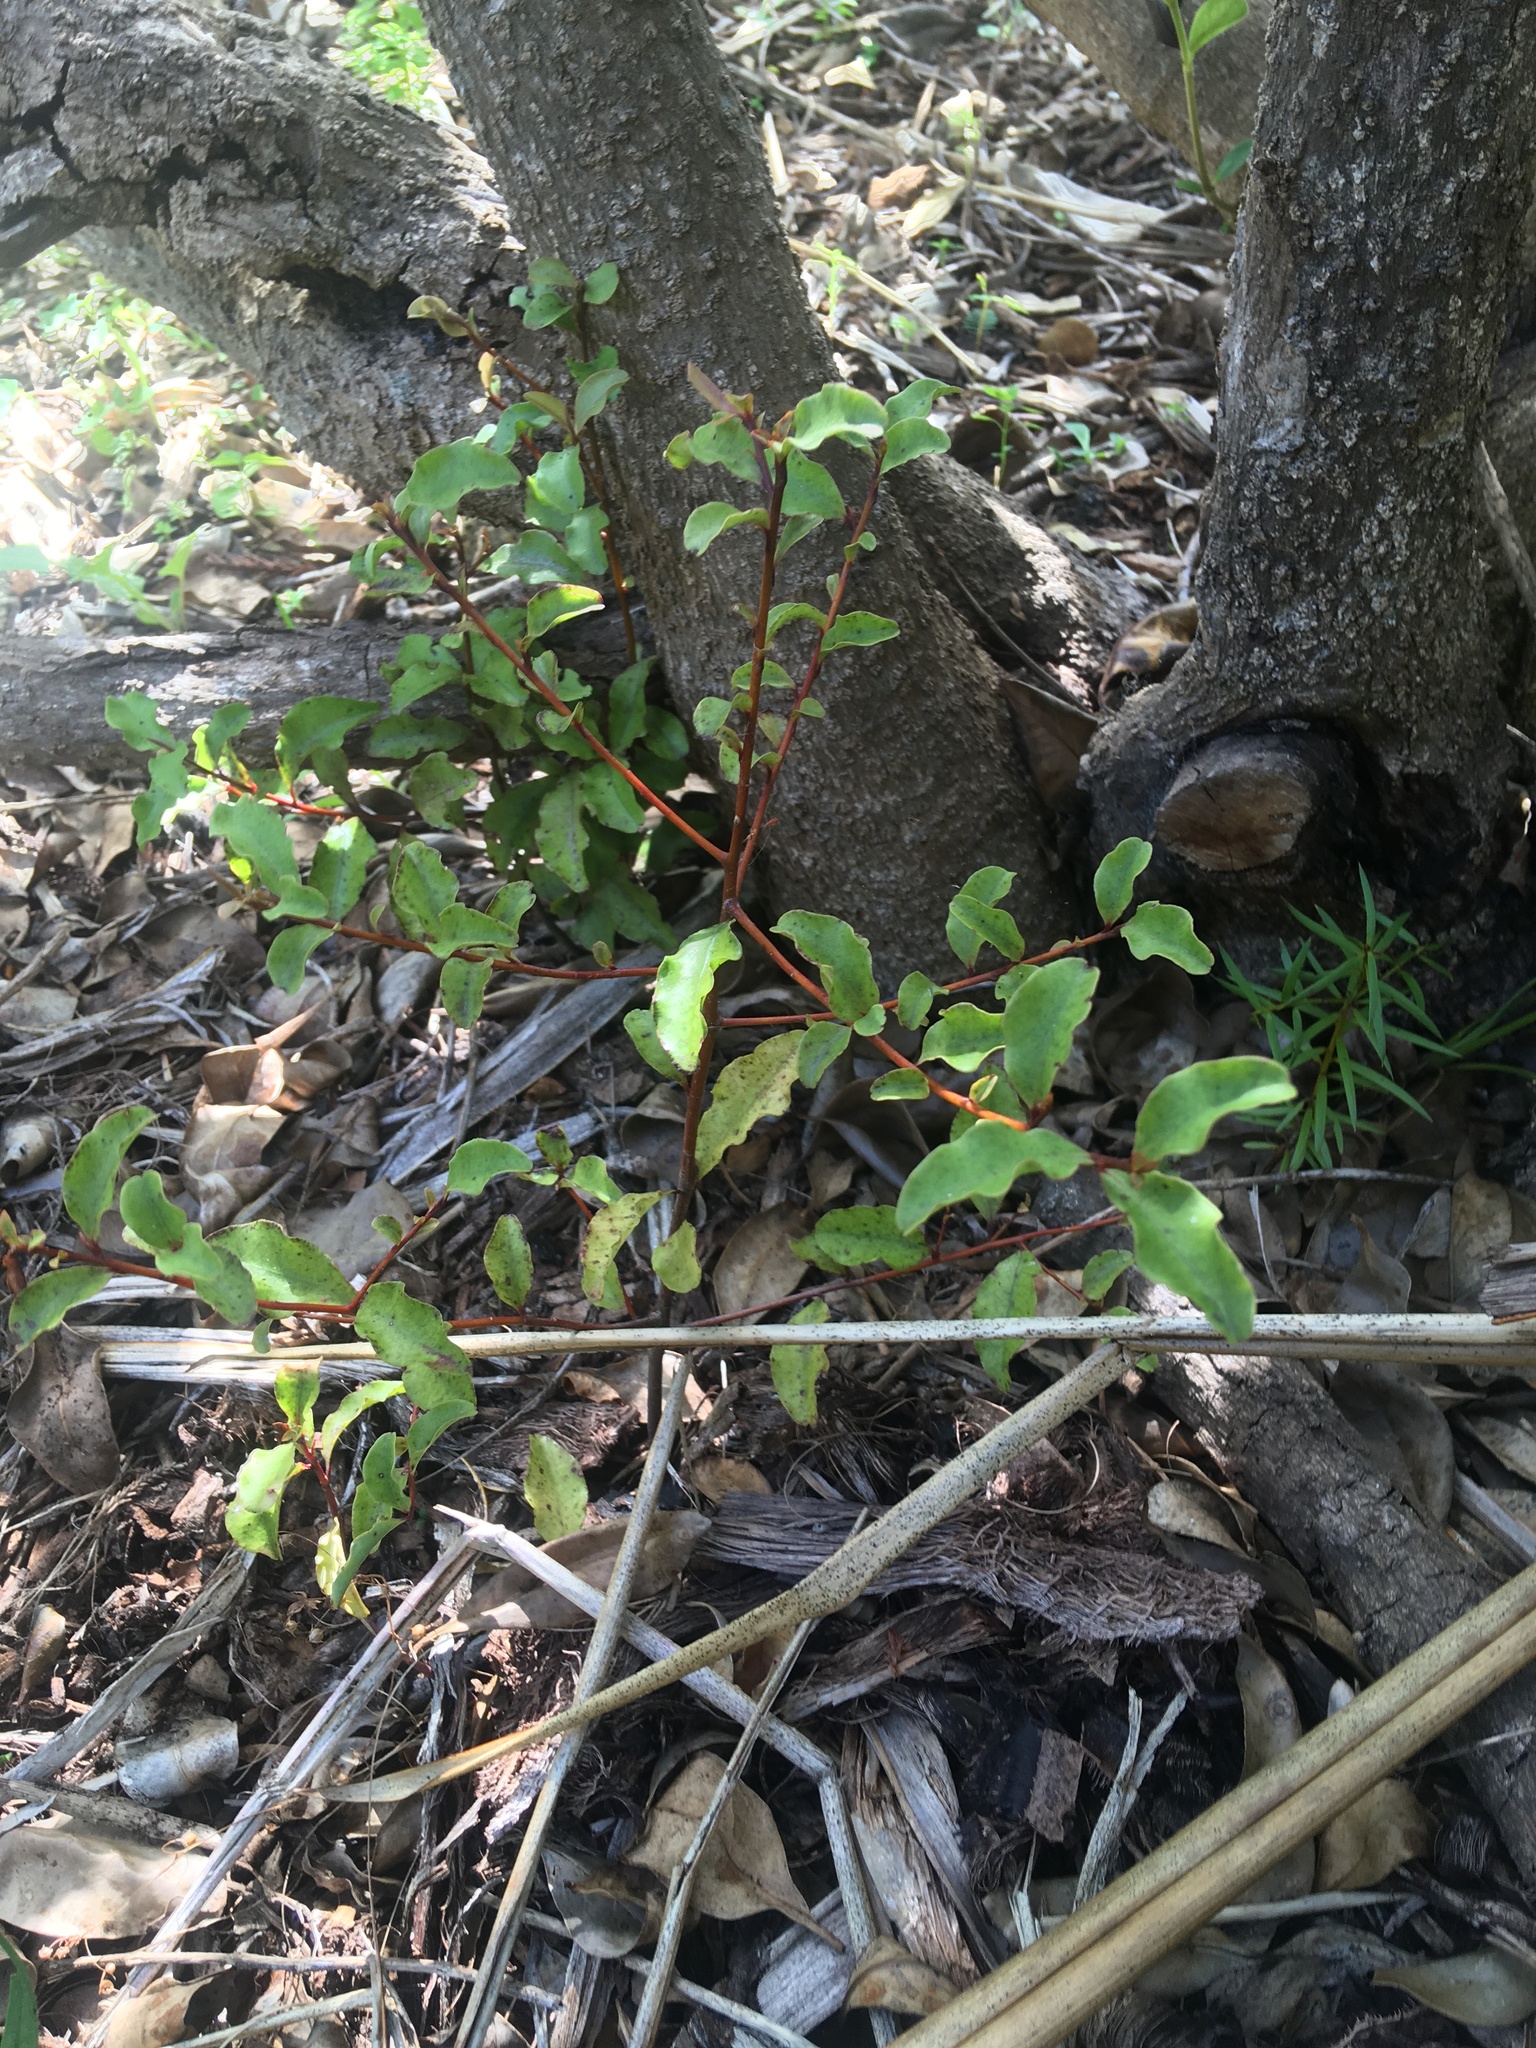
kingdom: Plantae
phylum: Tracheophyta
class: Magnoliopsida
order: Ericales
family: Primulaceae
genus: Myrsine
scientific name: Myrsine australis
